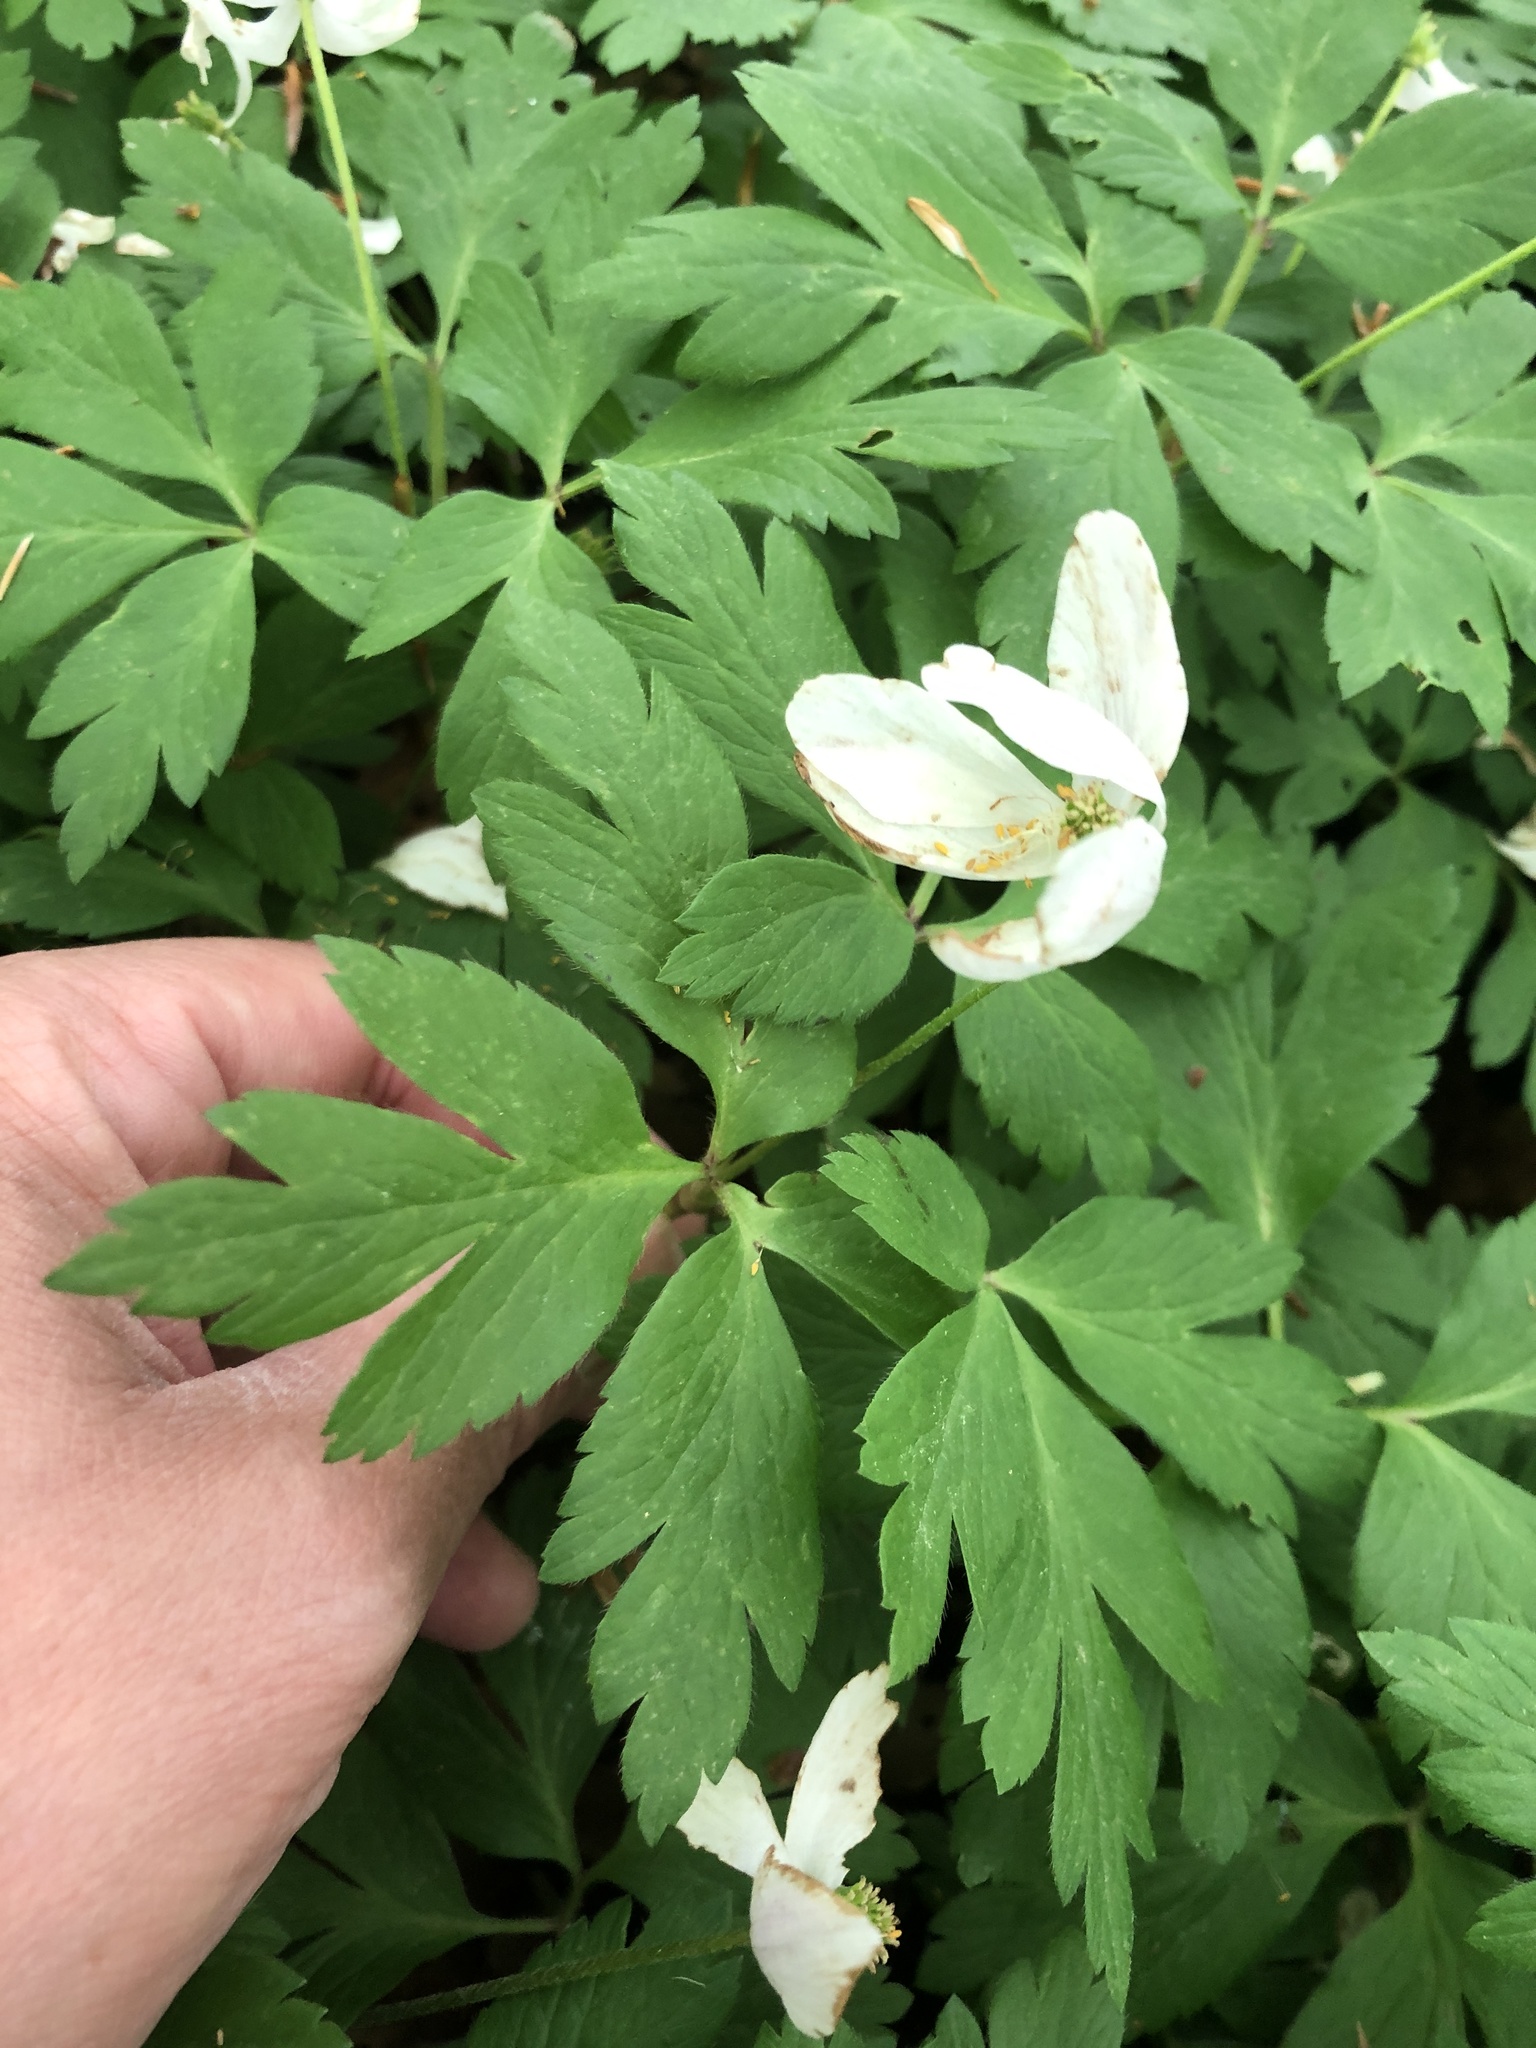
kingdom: Plantae
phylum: Tracheophyta
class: Magnoliopsida
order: Ranunculales
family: Ranunculaceae
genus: Anemone
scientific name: Anemone nemorosa
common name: Wood anemone
